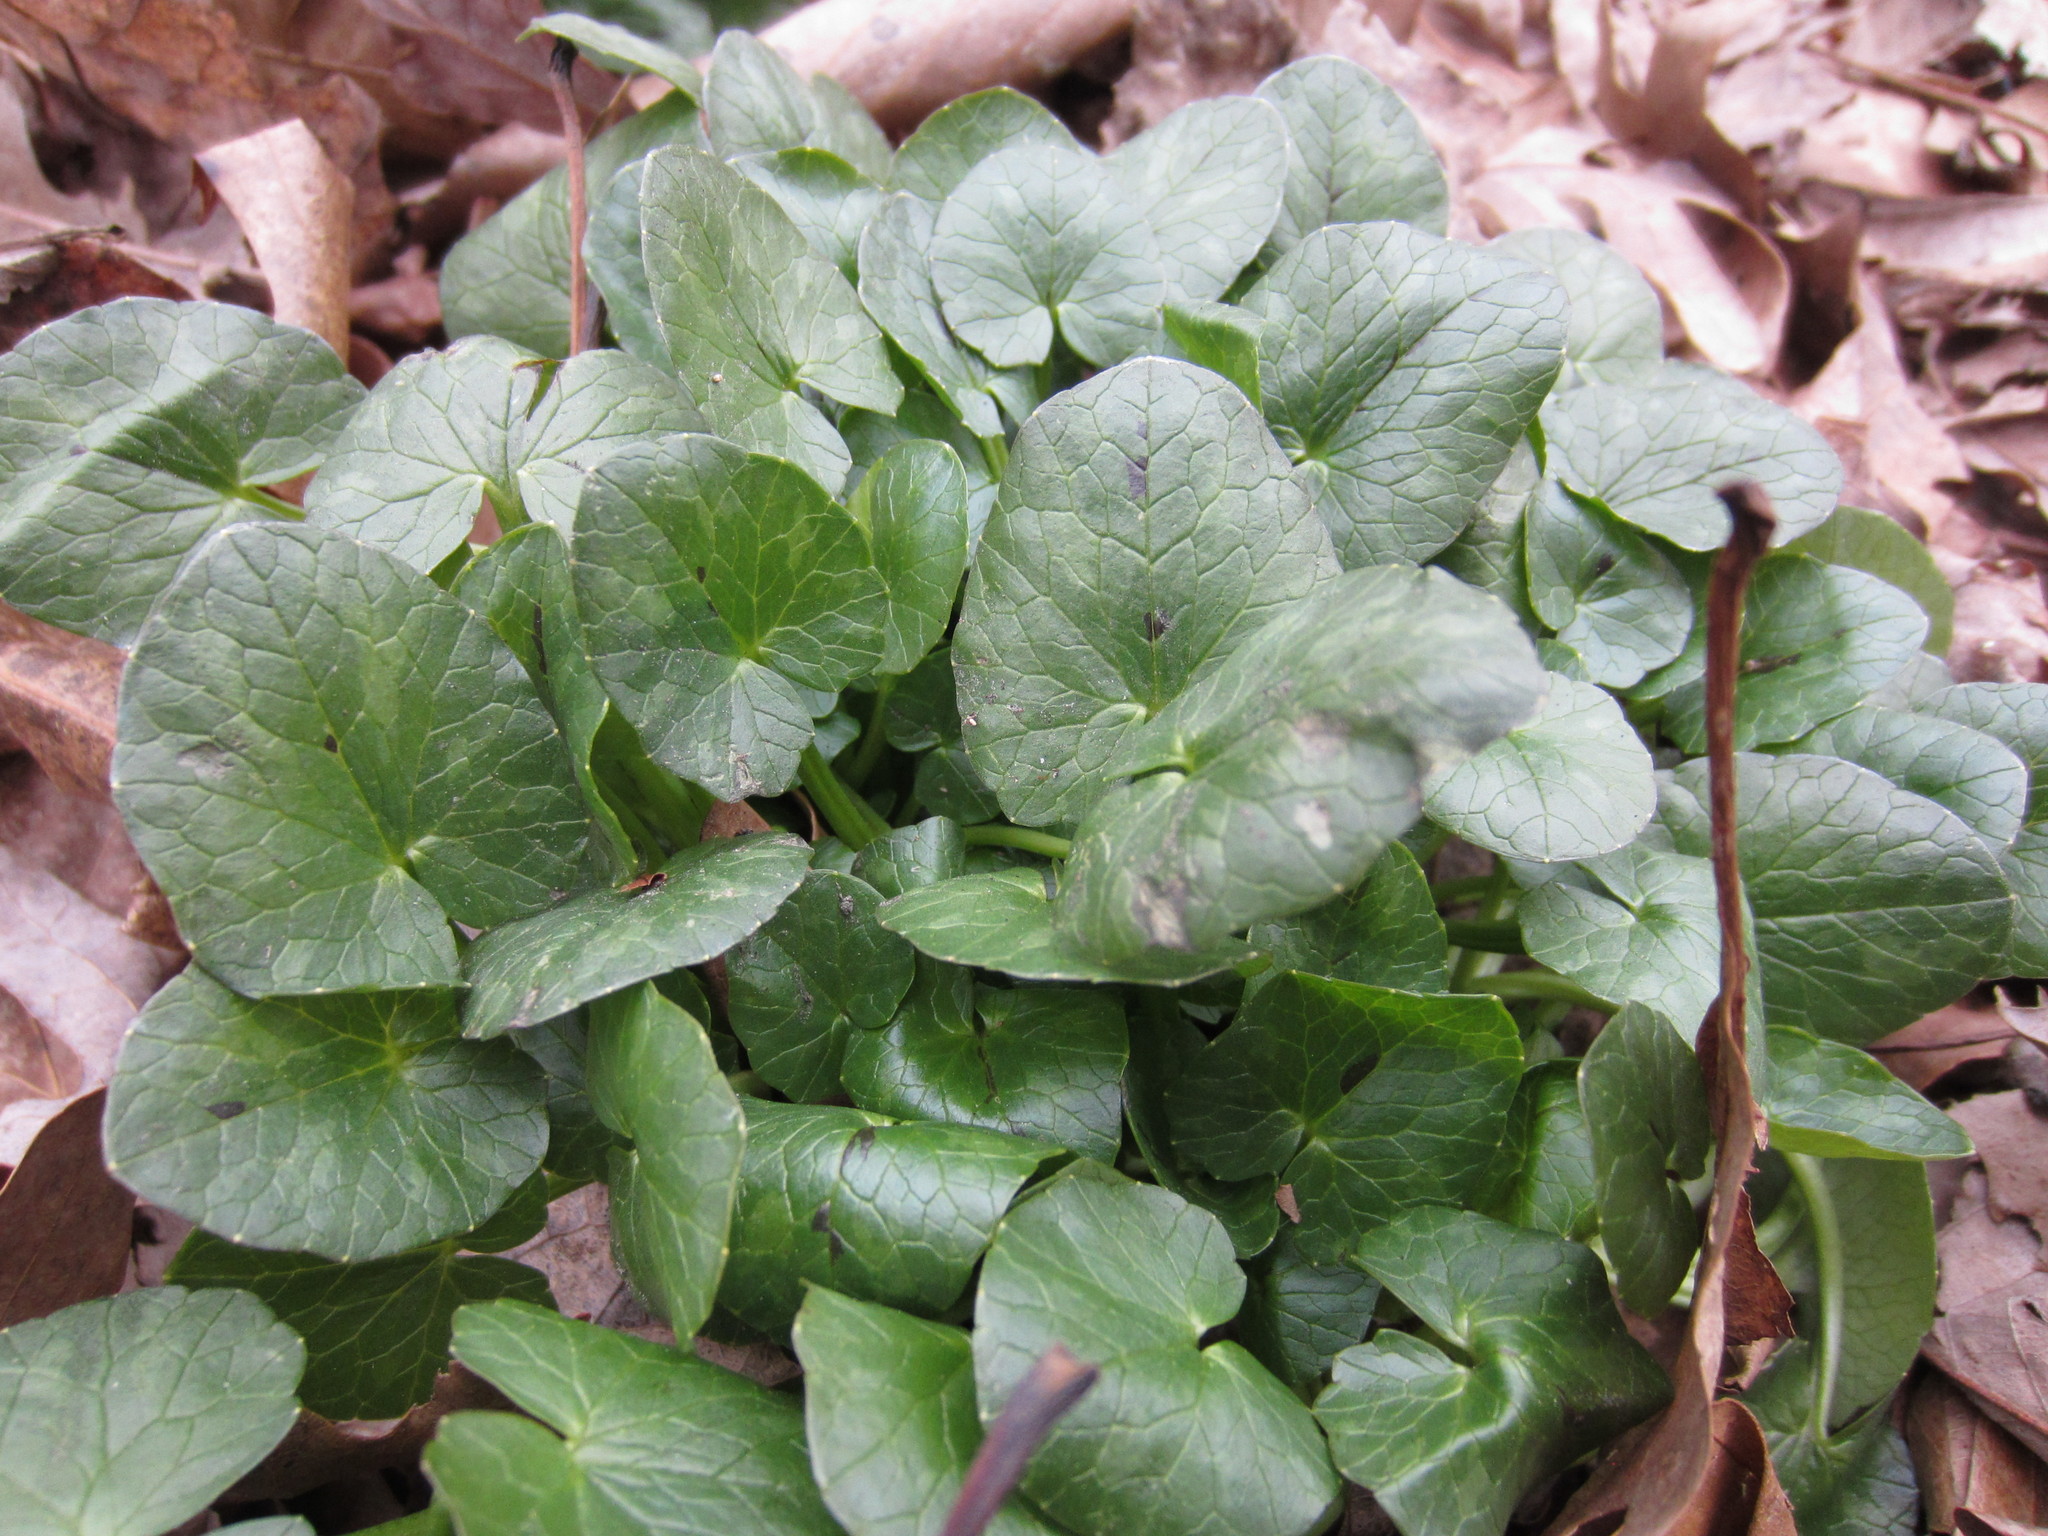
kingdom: Plantae
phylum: Tracheophyta
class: Magnoliopsida
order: Ranunculales
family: Ranunculaceae
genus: Ficaria
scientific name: Ficaria verna
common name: Lesser celandine
